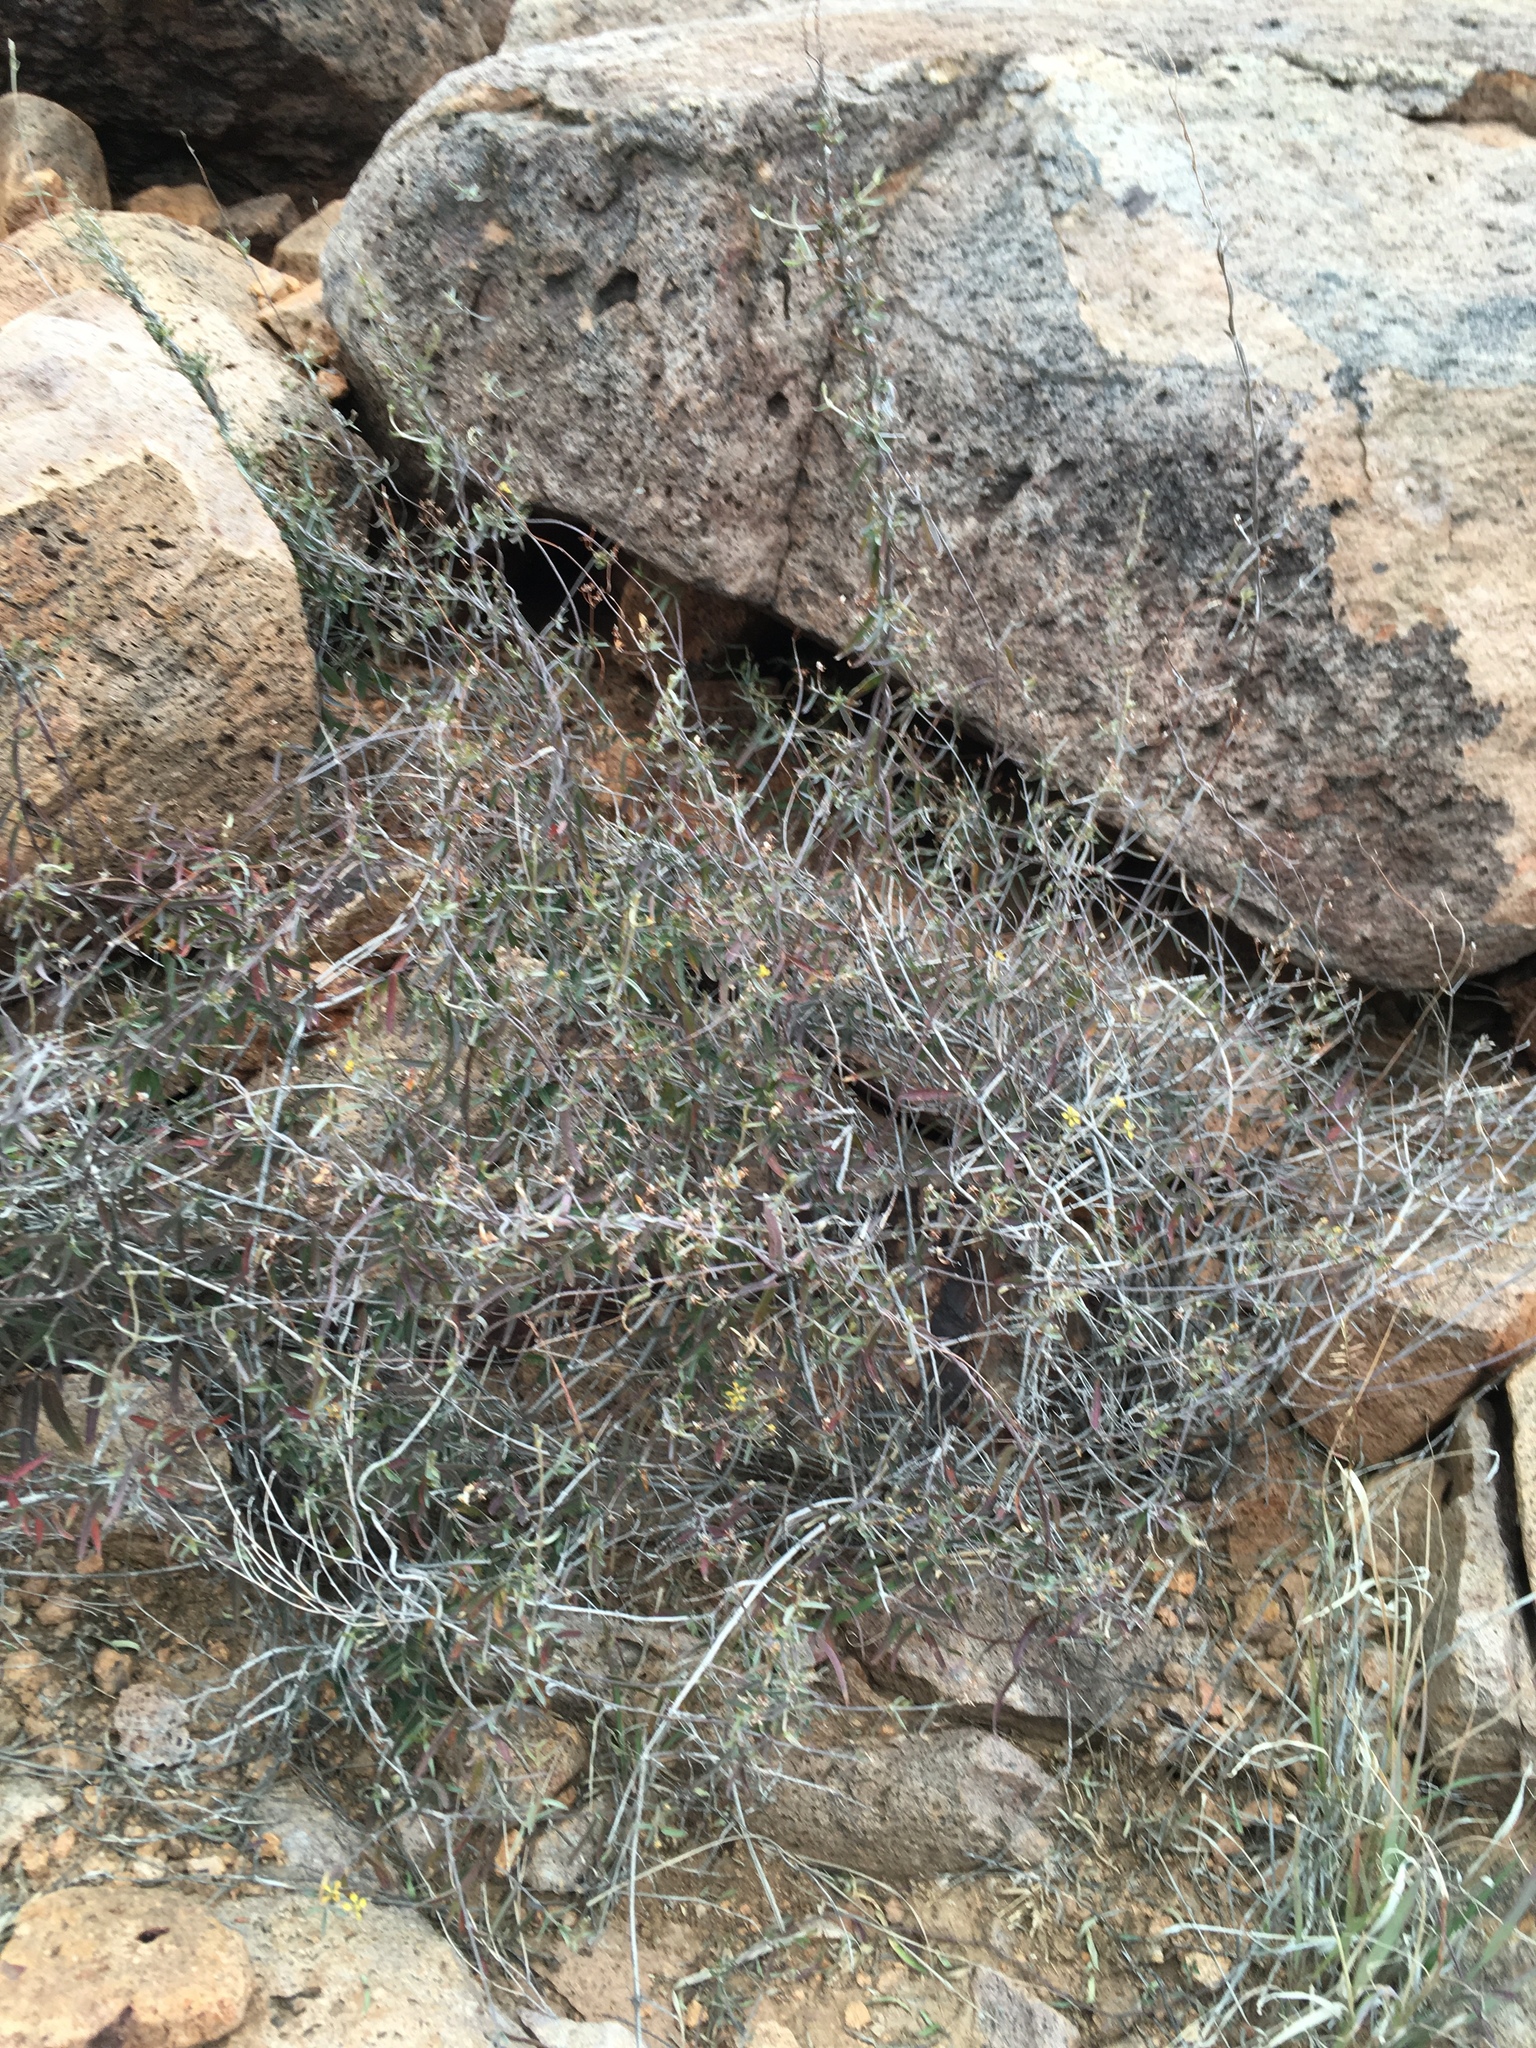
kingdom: Plantae
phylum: Tracheophyta
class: Magnoliopsida
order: Malpighiales
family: Malpighiaceae
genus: Cottsia
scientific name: Cottsia gracilis
